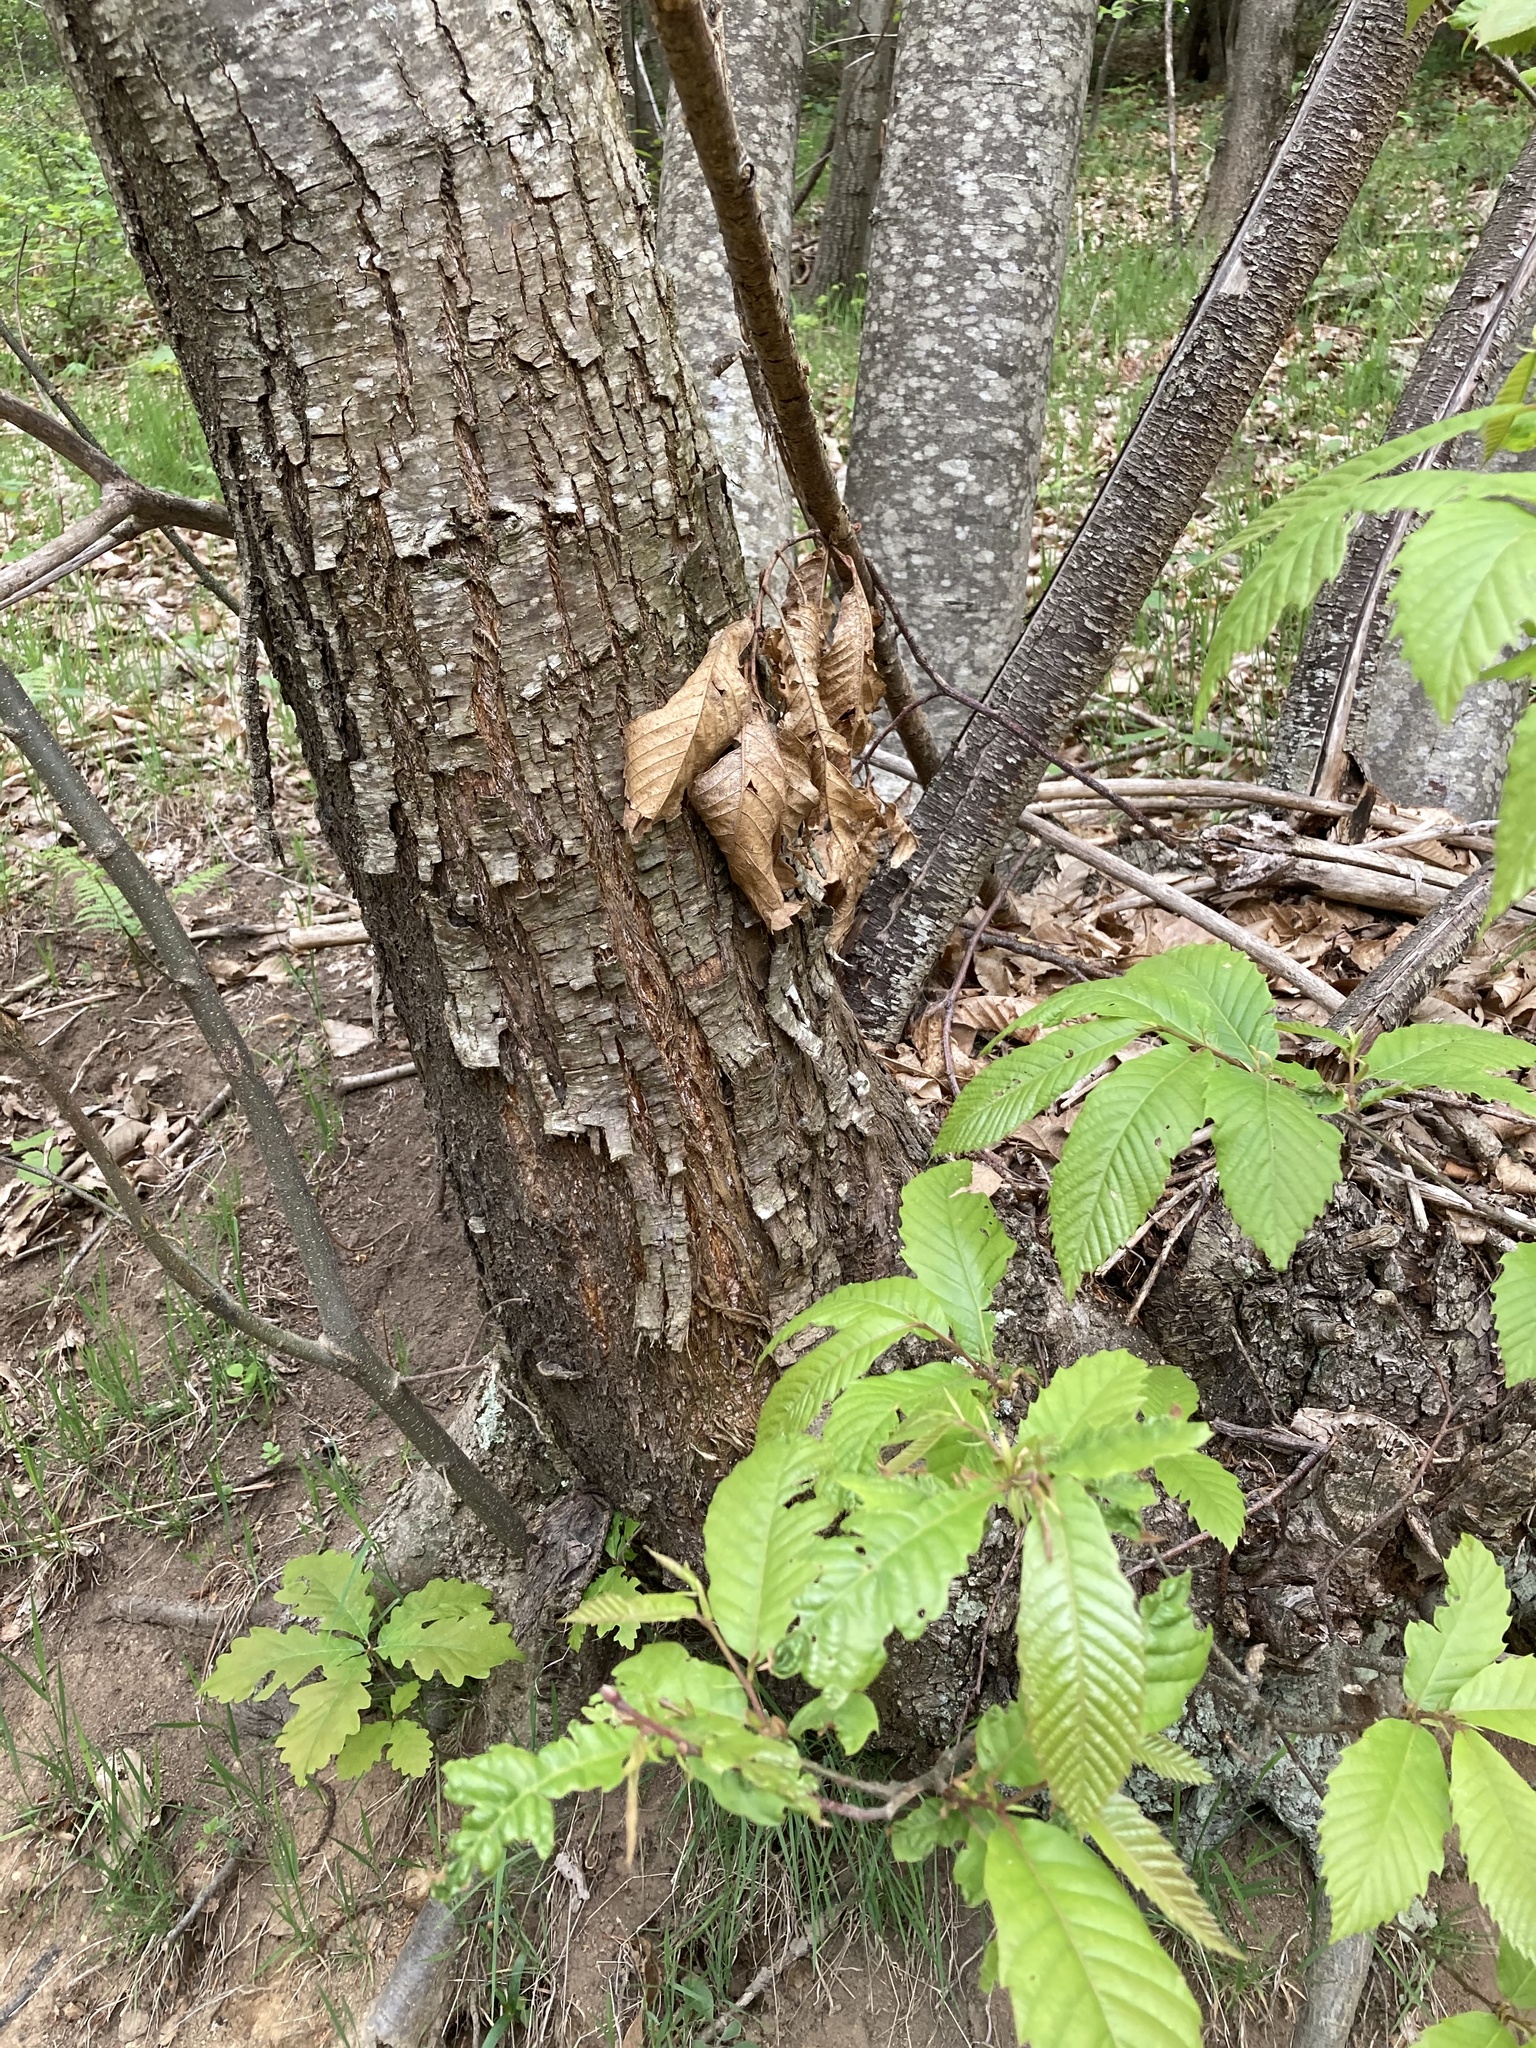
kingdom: Plantae
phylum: Tracheophyta
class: Magnoliopsida
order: Fagales
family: Fagaceae
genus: Castanea
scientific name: Castanea sativa
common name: Sweet chestnut
